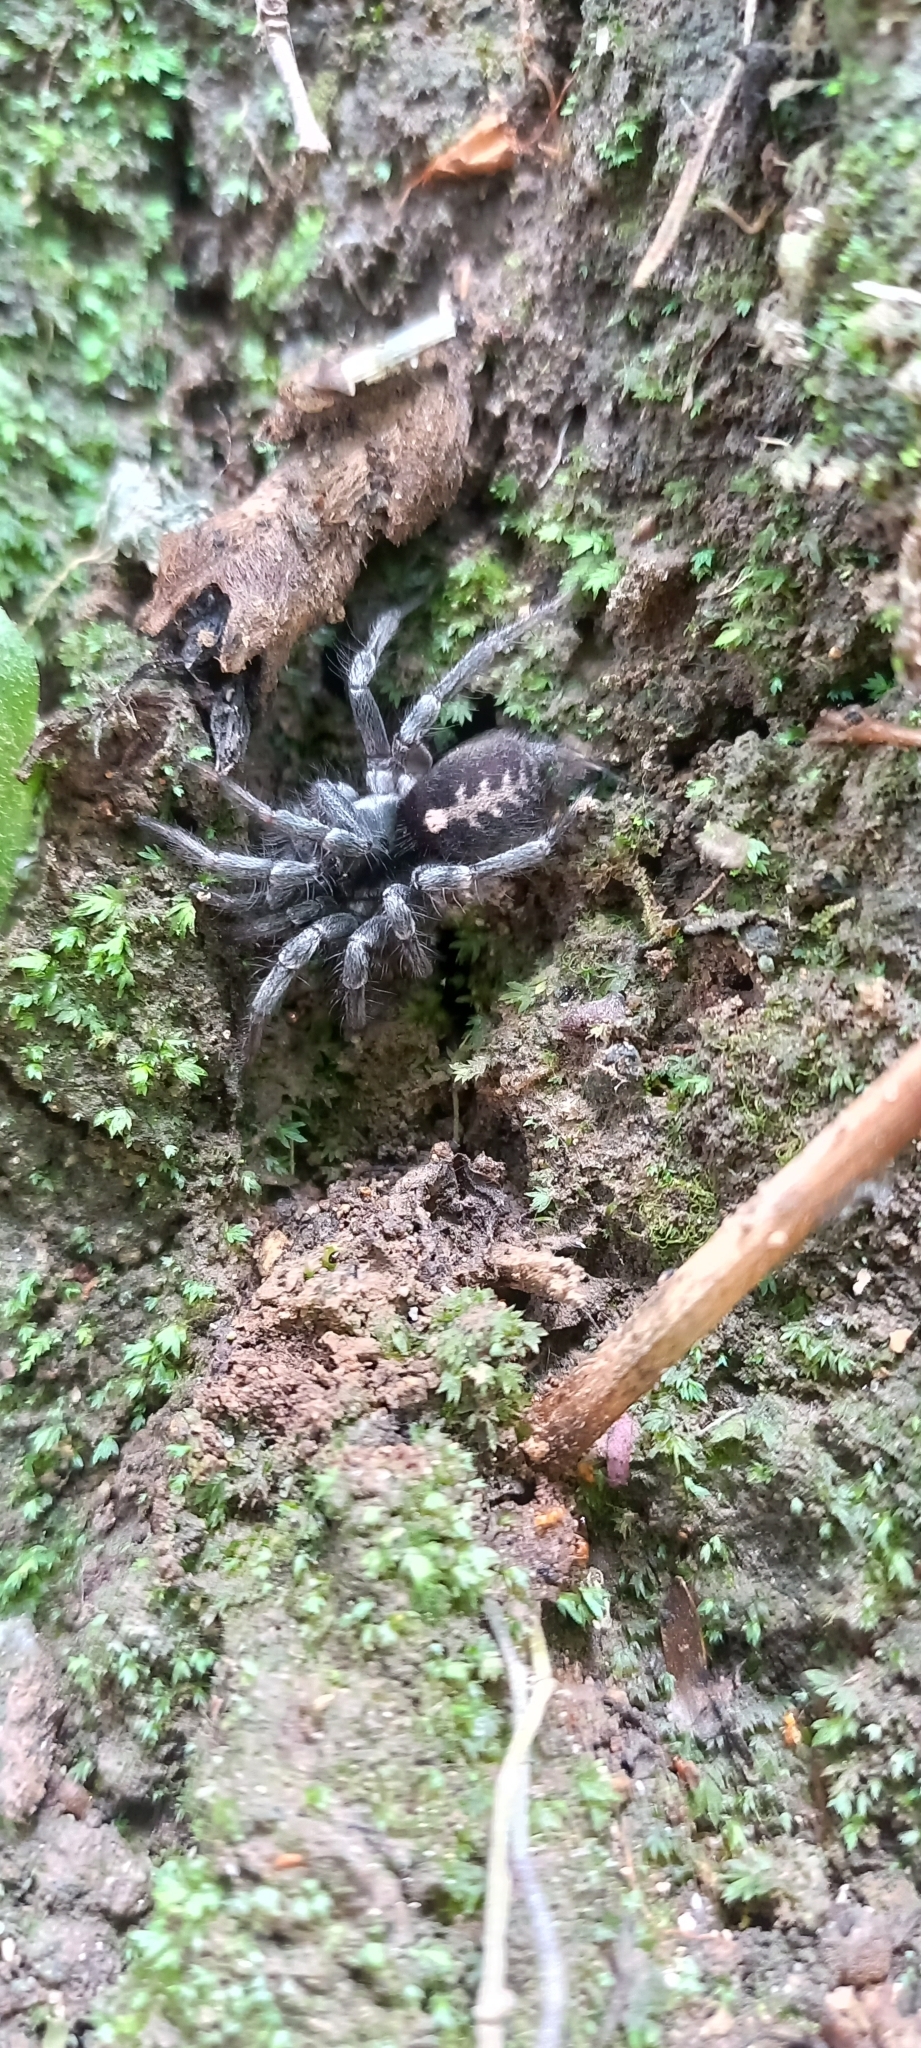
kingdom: Animalia
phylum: Arthropoda
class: Arachnida
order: Araneae
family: Ischnothelidae
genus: Ischnothele
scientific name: Ischnothele caudata
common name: Funnelweb spiders
